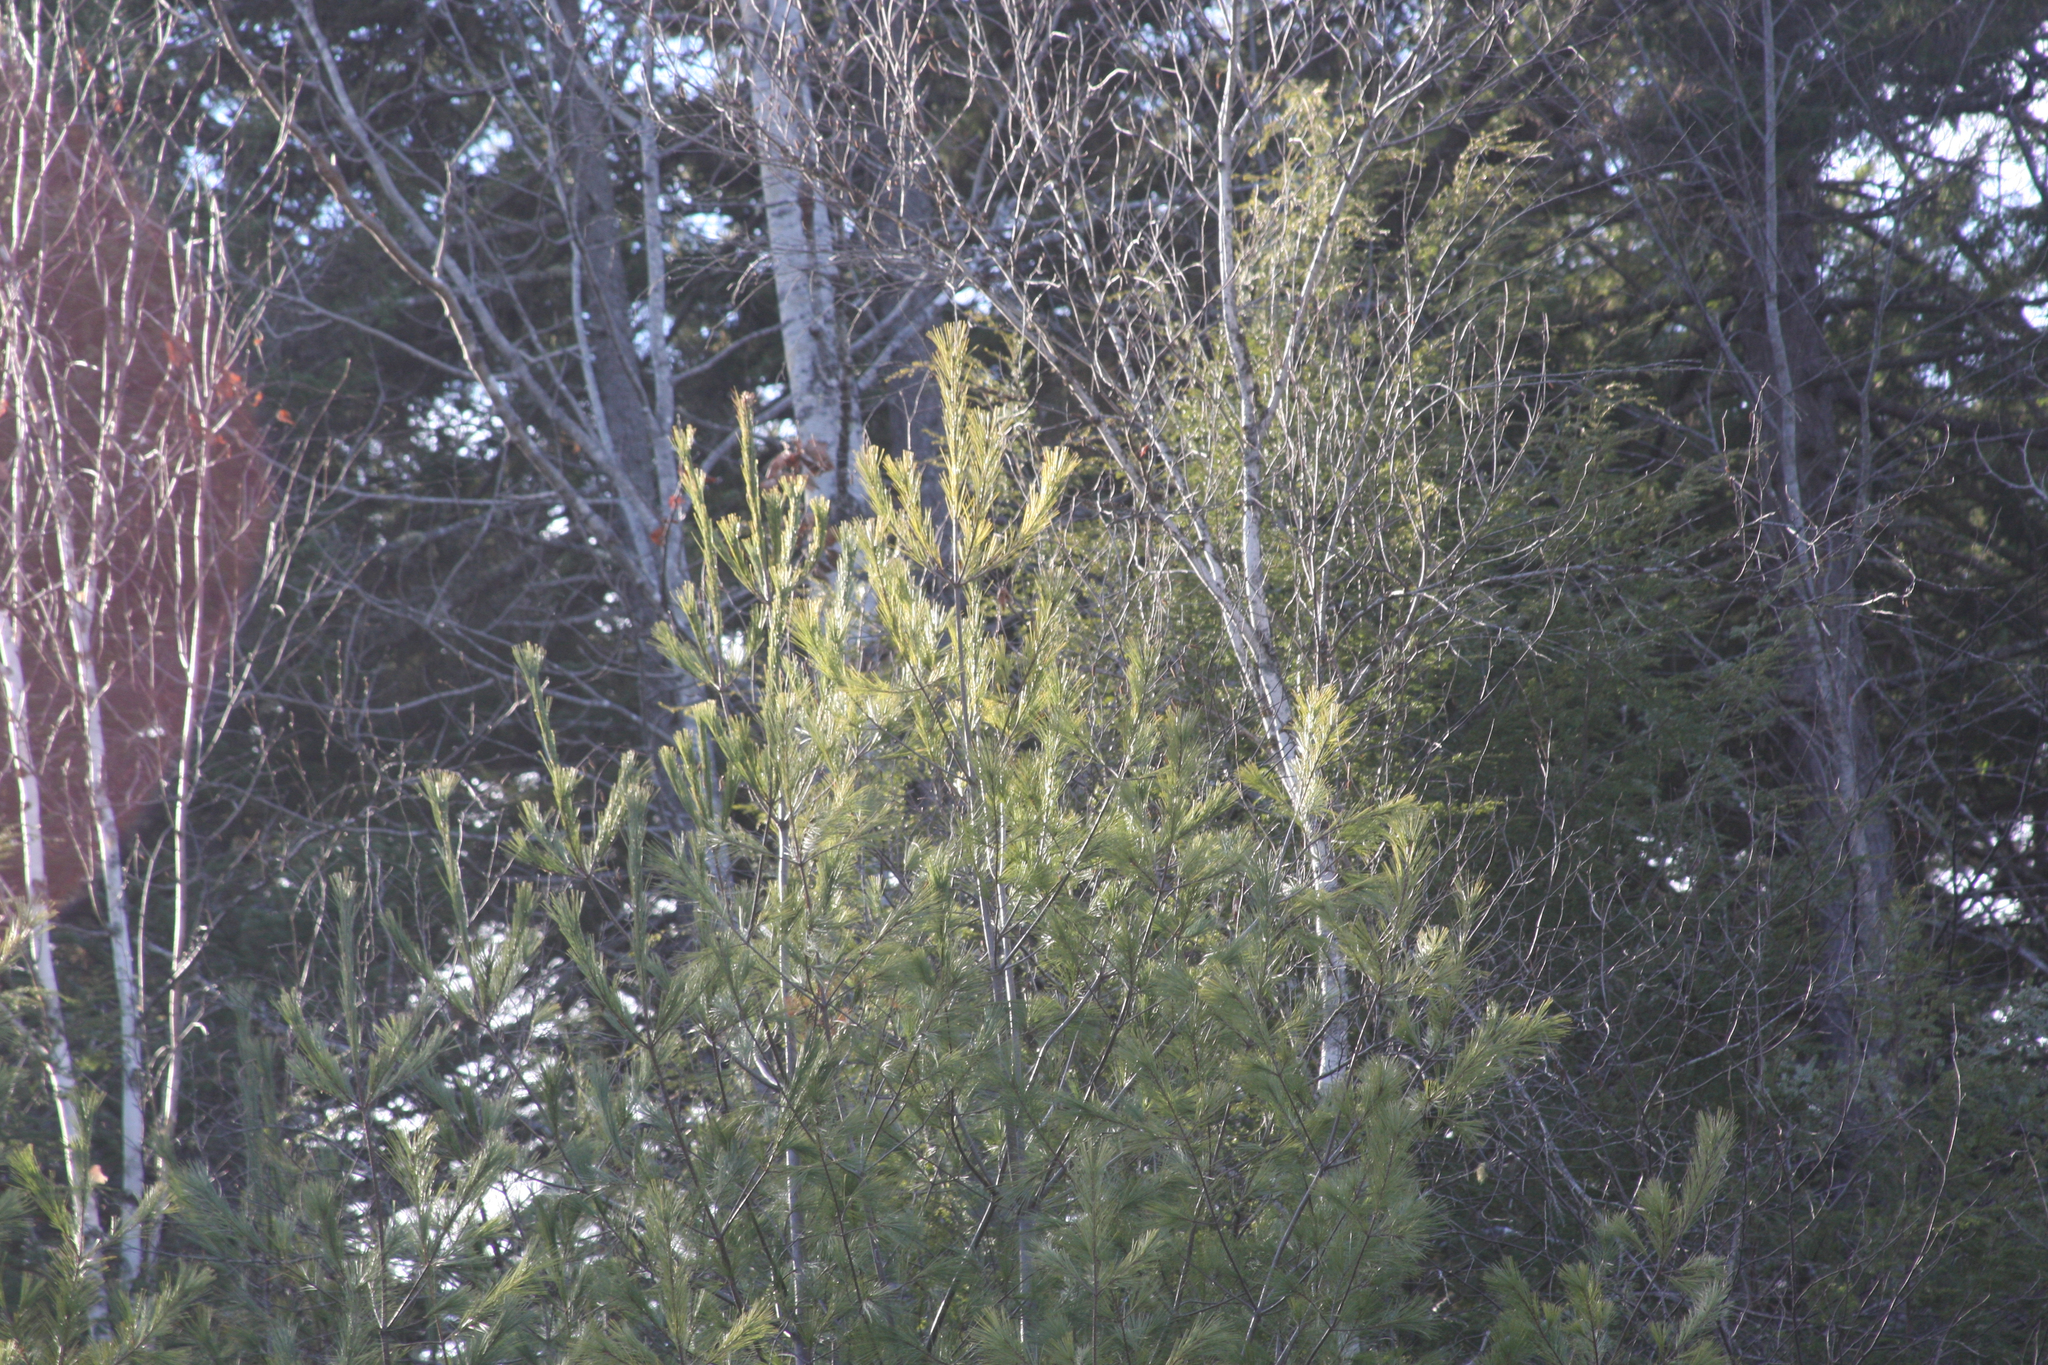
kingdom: Plantae
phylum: Tracheophyta
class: Pinopsida
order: Pinales
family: Pinaceae
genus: Pinus
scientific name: Pinus strobus
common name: Weymouth pine
